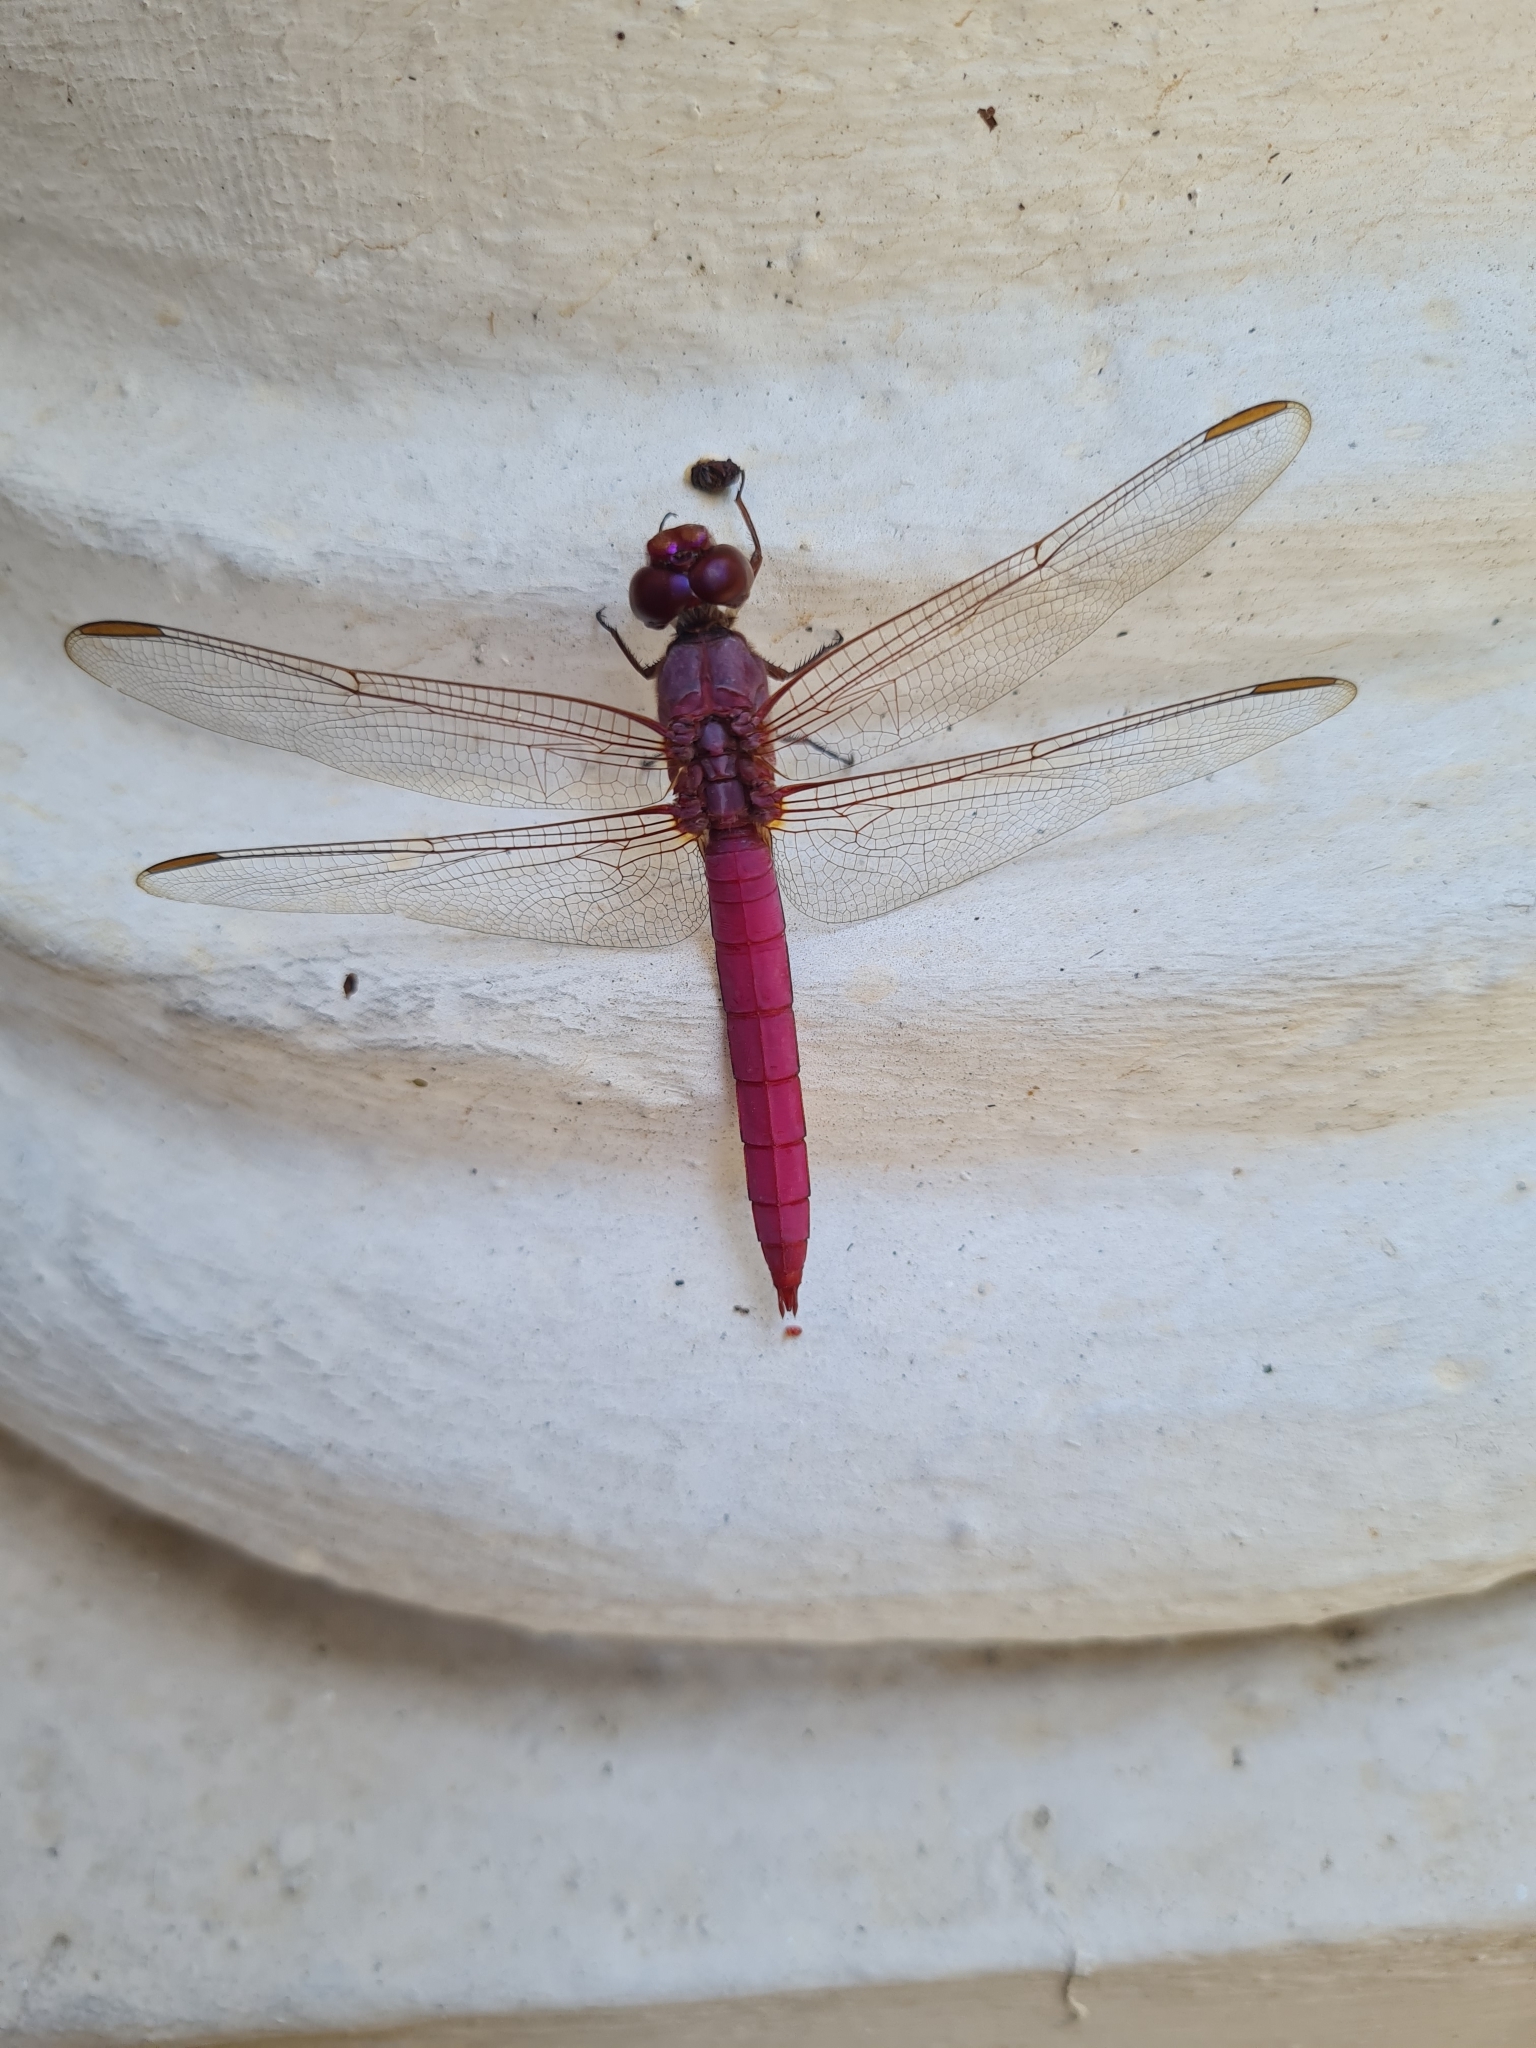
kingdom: Animalia
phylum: Arthropoda
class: Insecta
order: Odonata
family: Libellulidae
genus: Orthemis
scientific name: Orthemis aequilibris
